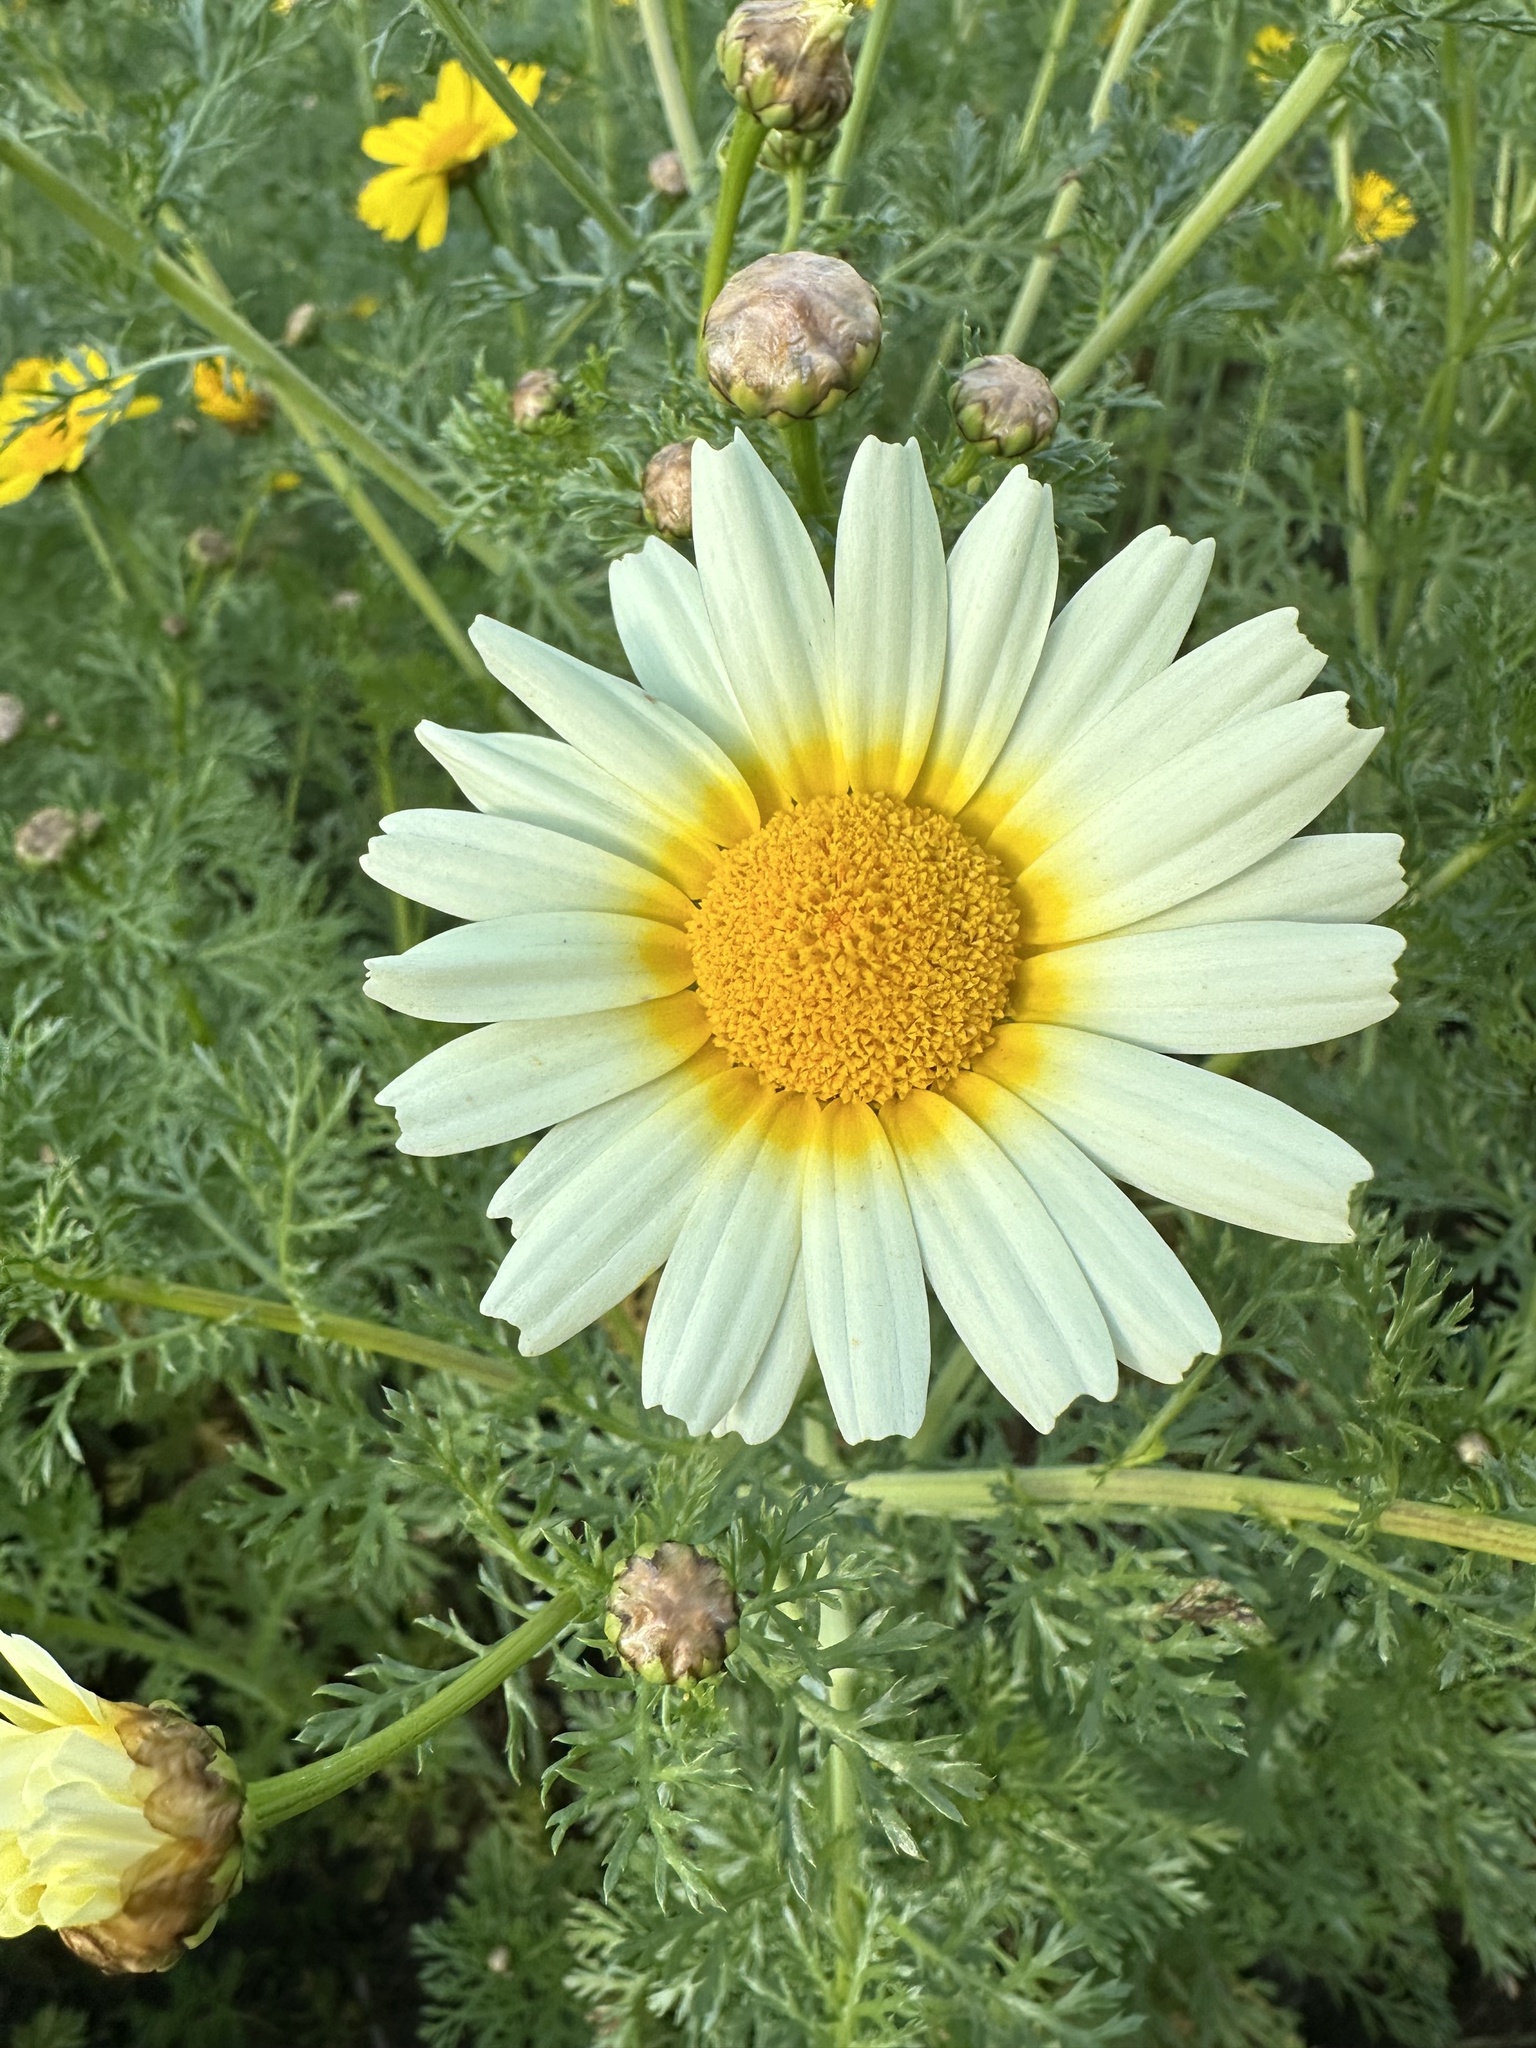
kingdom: Plantae
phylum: Tracheophyta
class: Magnoliopsida
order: Asterales
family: Asteraceae
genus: Glebionis
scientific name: Glebionis coronaria
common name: Crowndaisy
